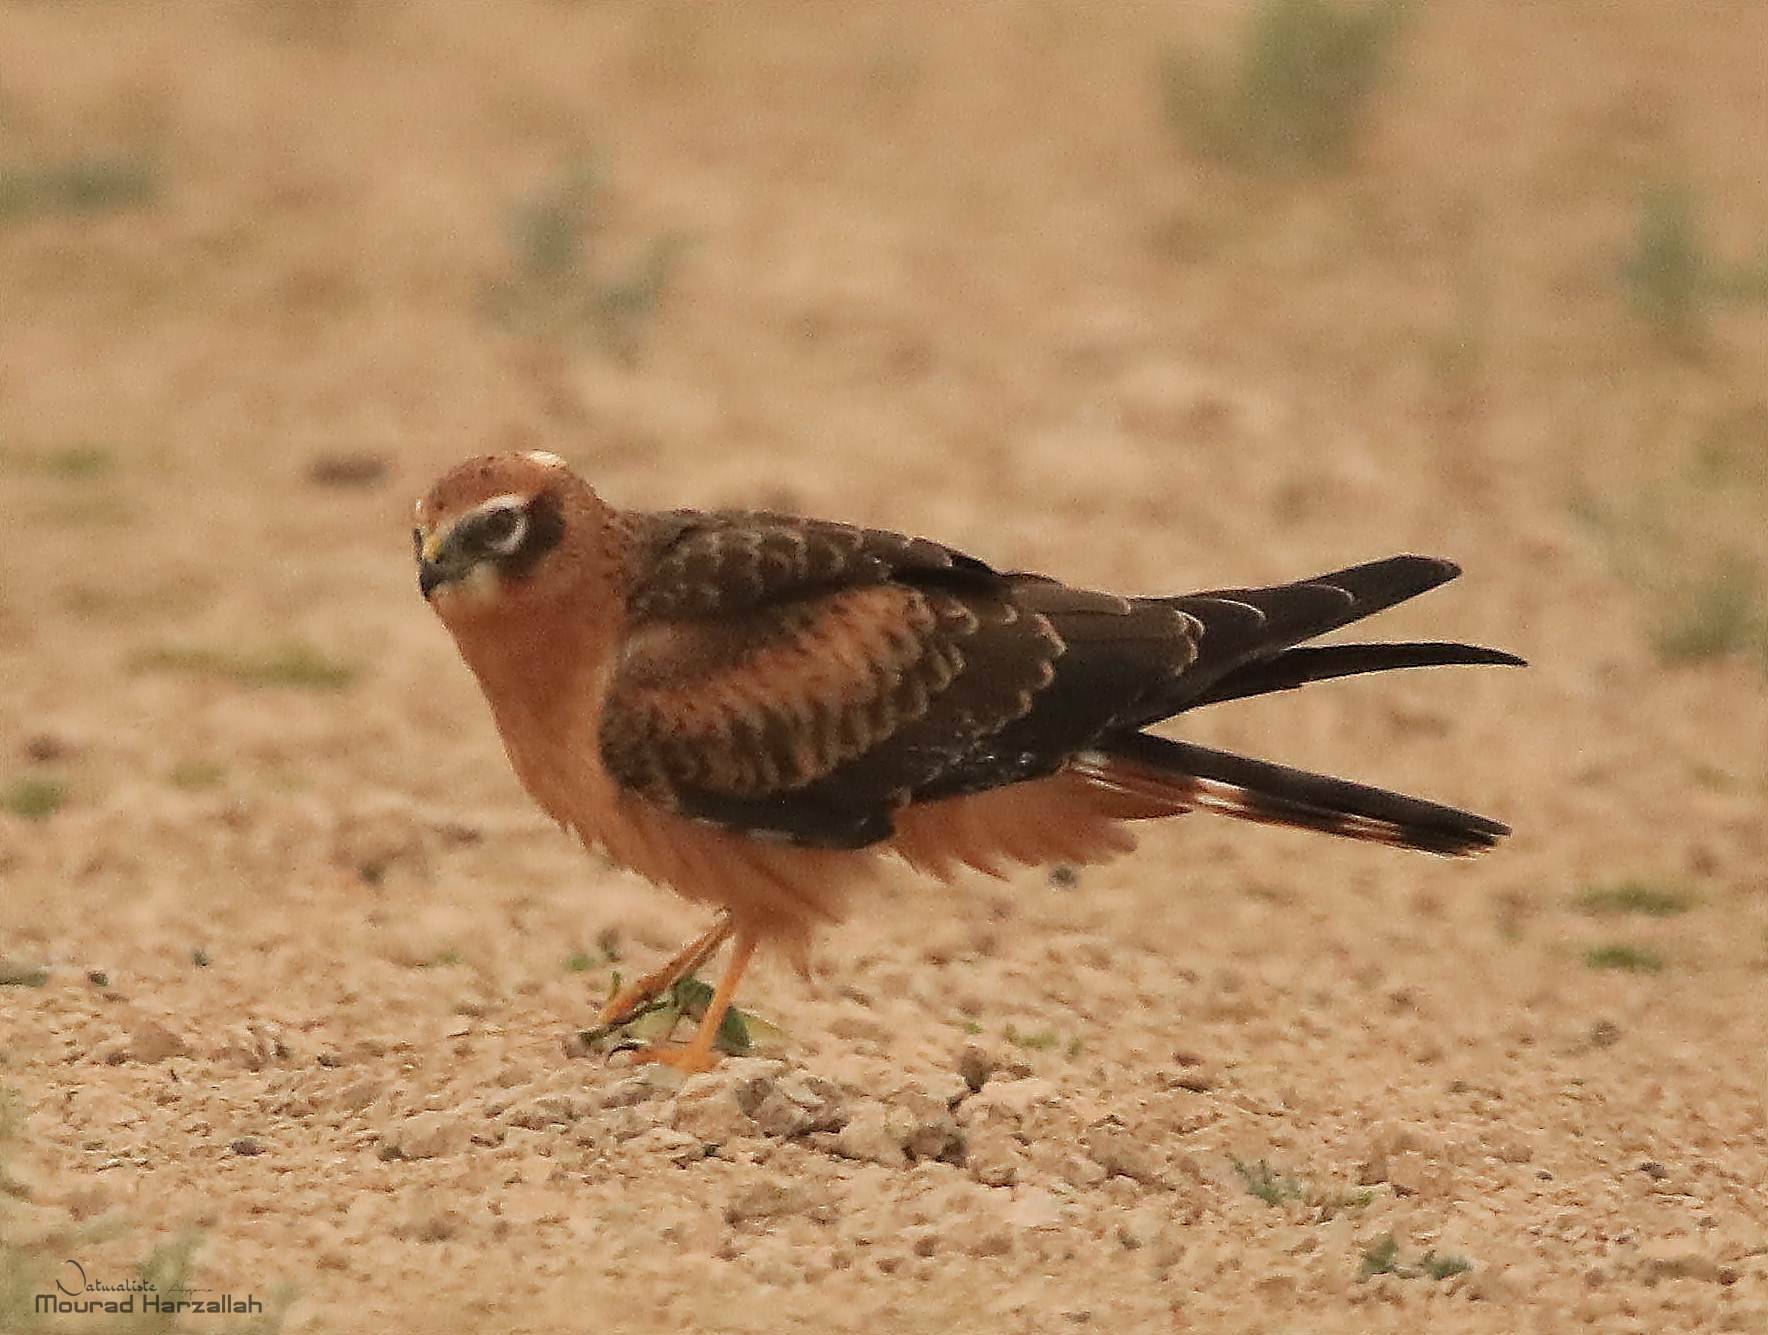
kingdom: Animalia
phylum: Chordata
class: Aves
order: Accipitriformes
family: Accipitridae
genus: Circus
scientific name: Circus pygargus
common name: Montagu's harrier
